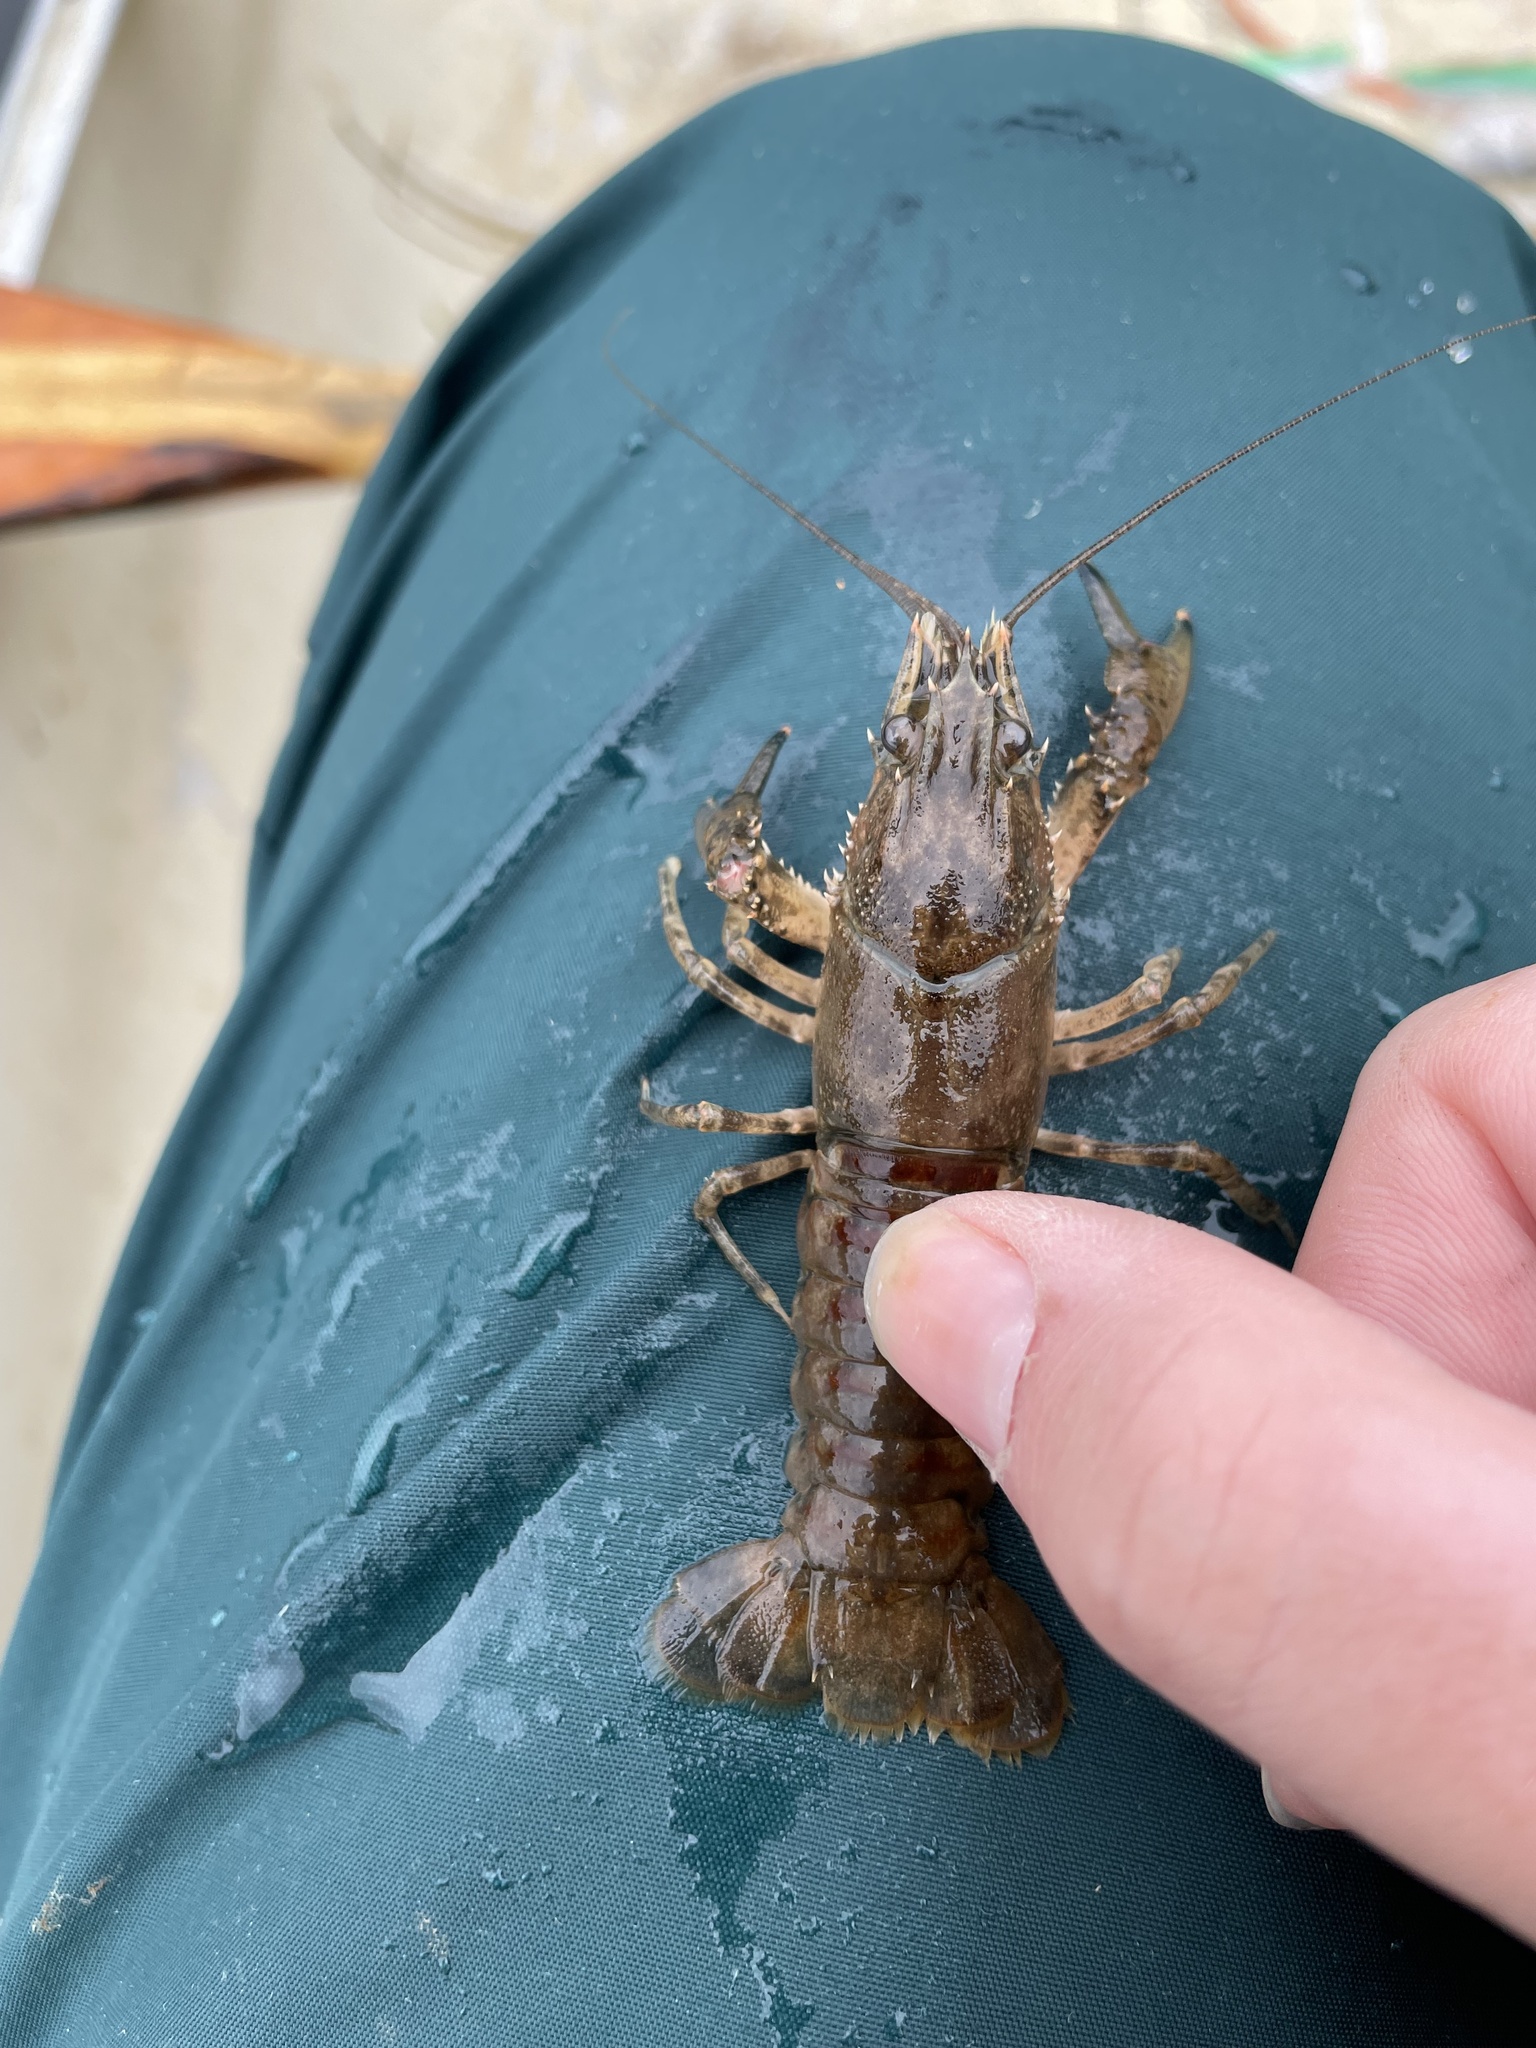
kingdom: Animalia
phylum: Arthropoda
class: Malacostraca
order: Decapoda
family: Cambaridae
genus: Faxonius
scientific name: Faxonius limosus
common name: American crayfish
